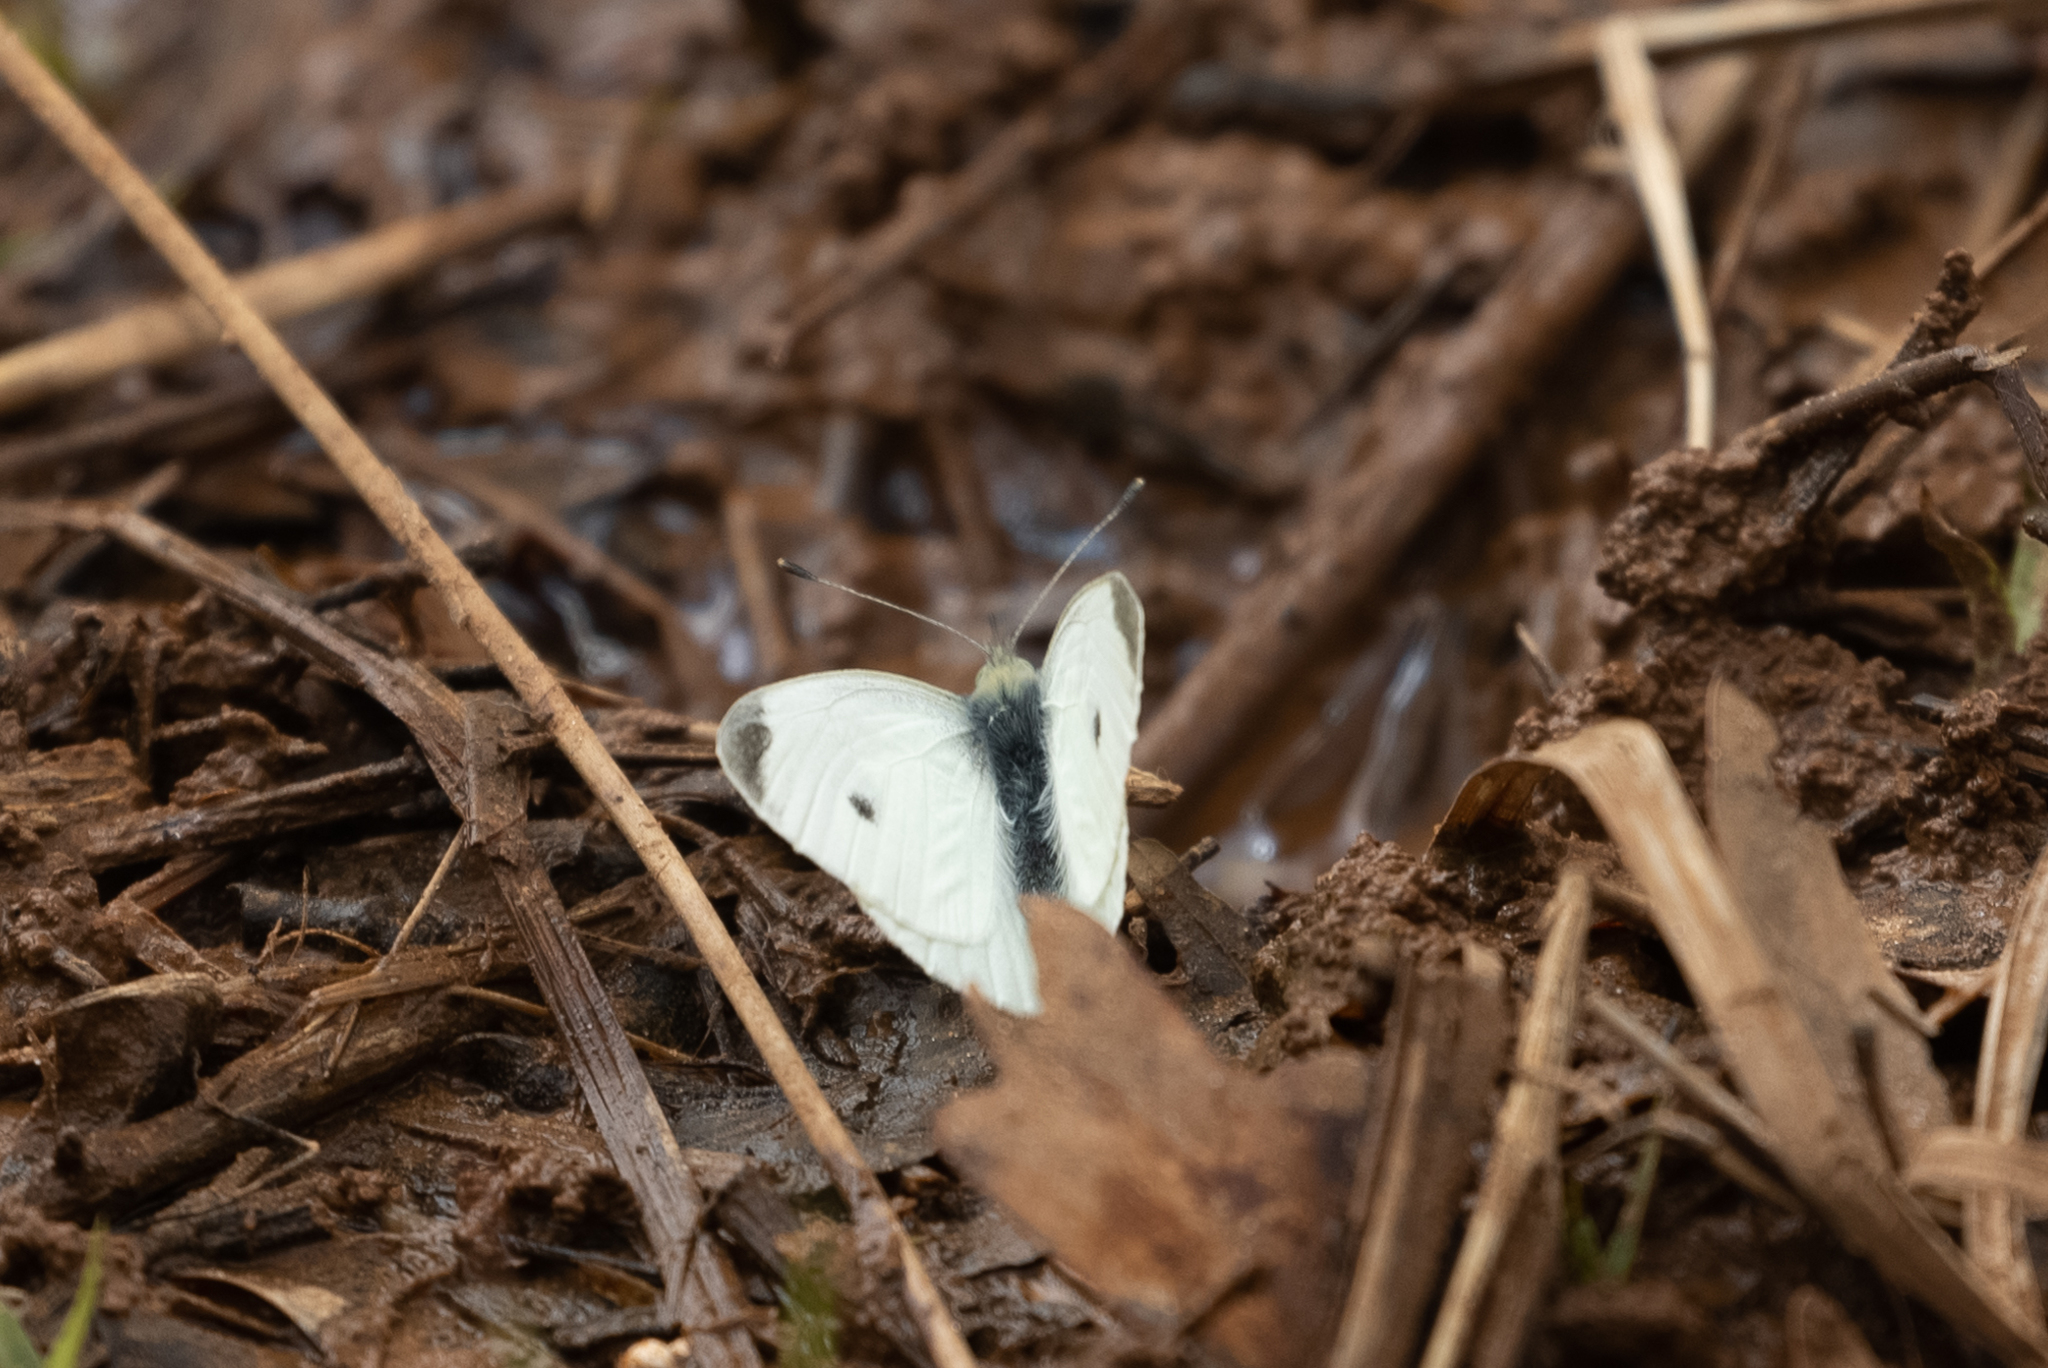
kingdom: Animalia
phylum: Arthropoda
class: Insecta
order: Lepidoptera
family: Pieridae
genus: Pieris
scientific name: Pieris rapae
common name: Small white
